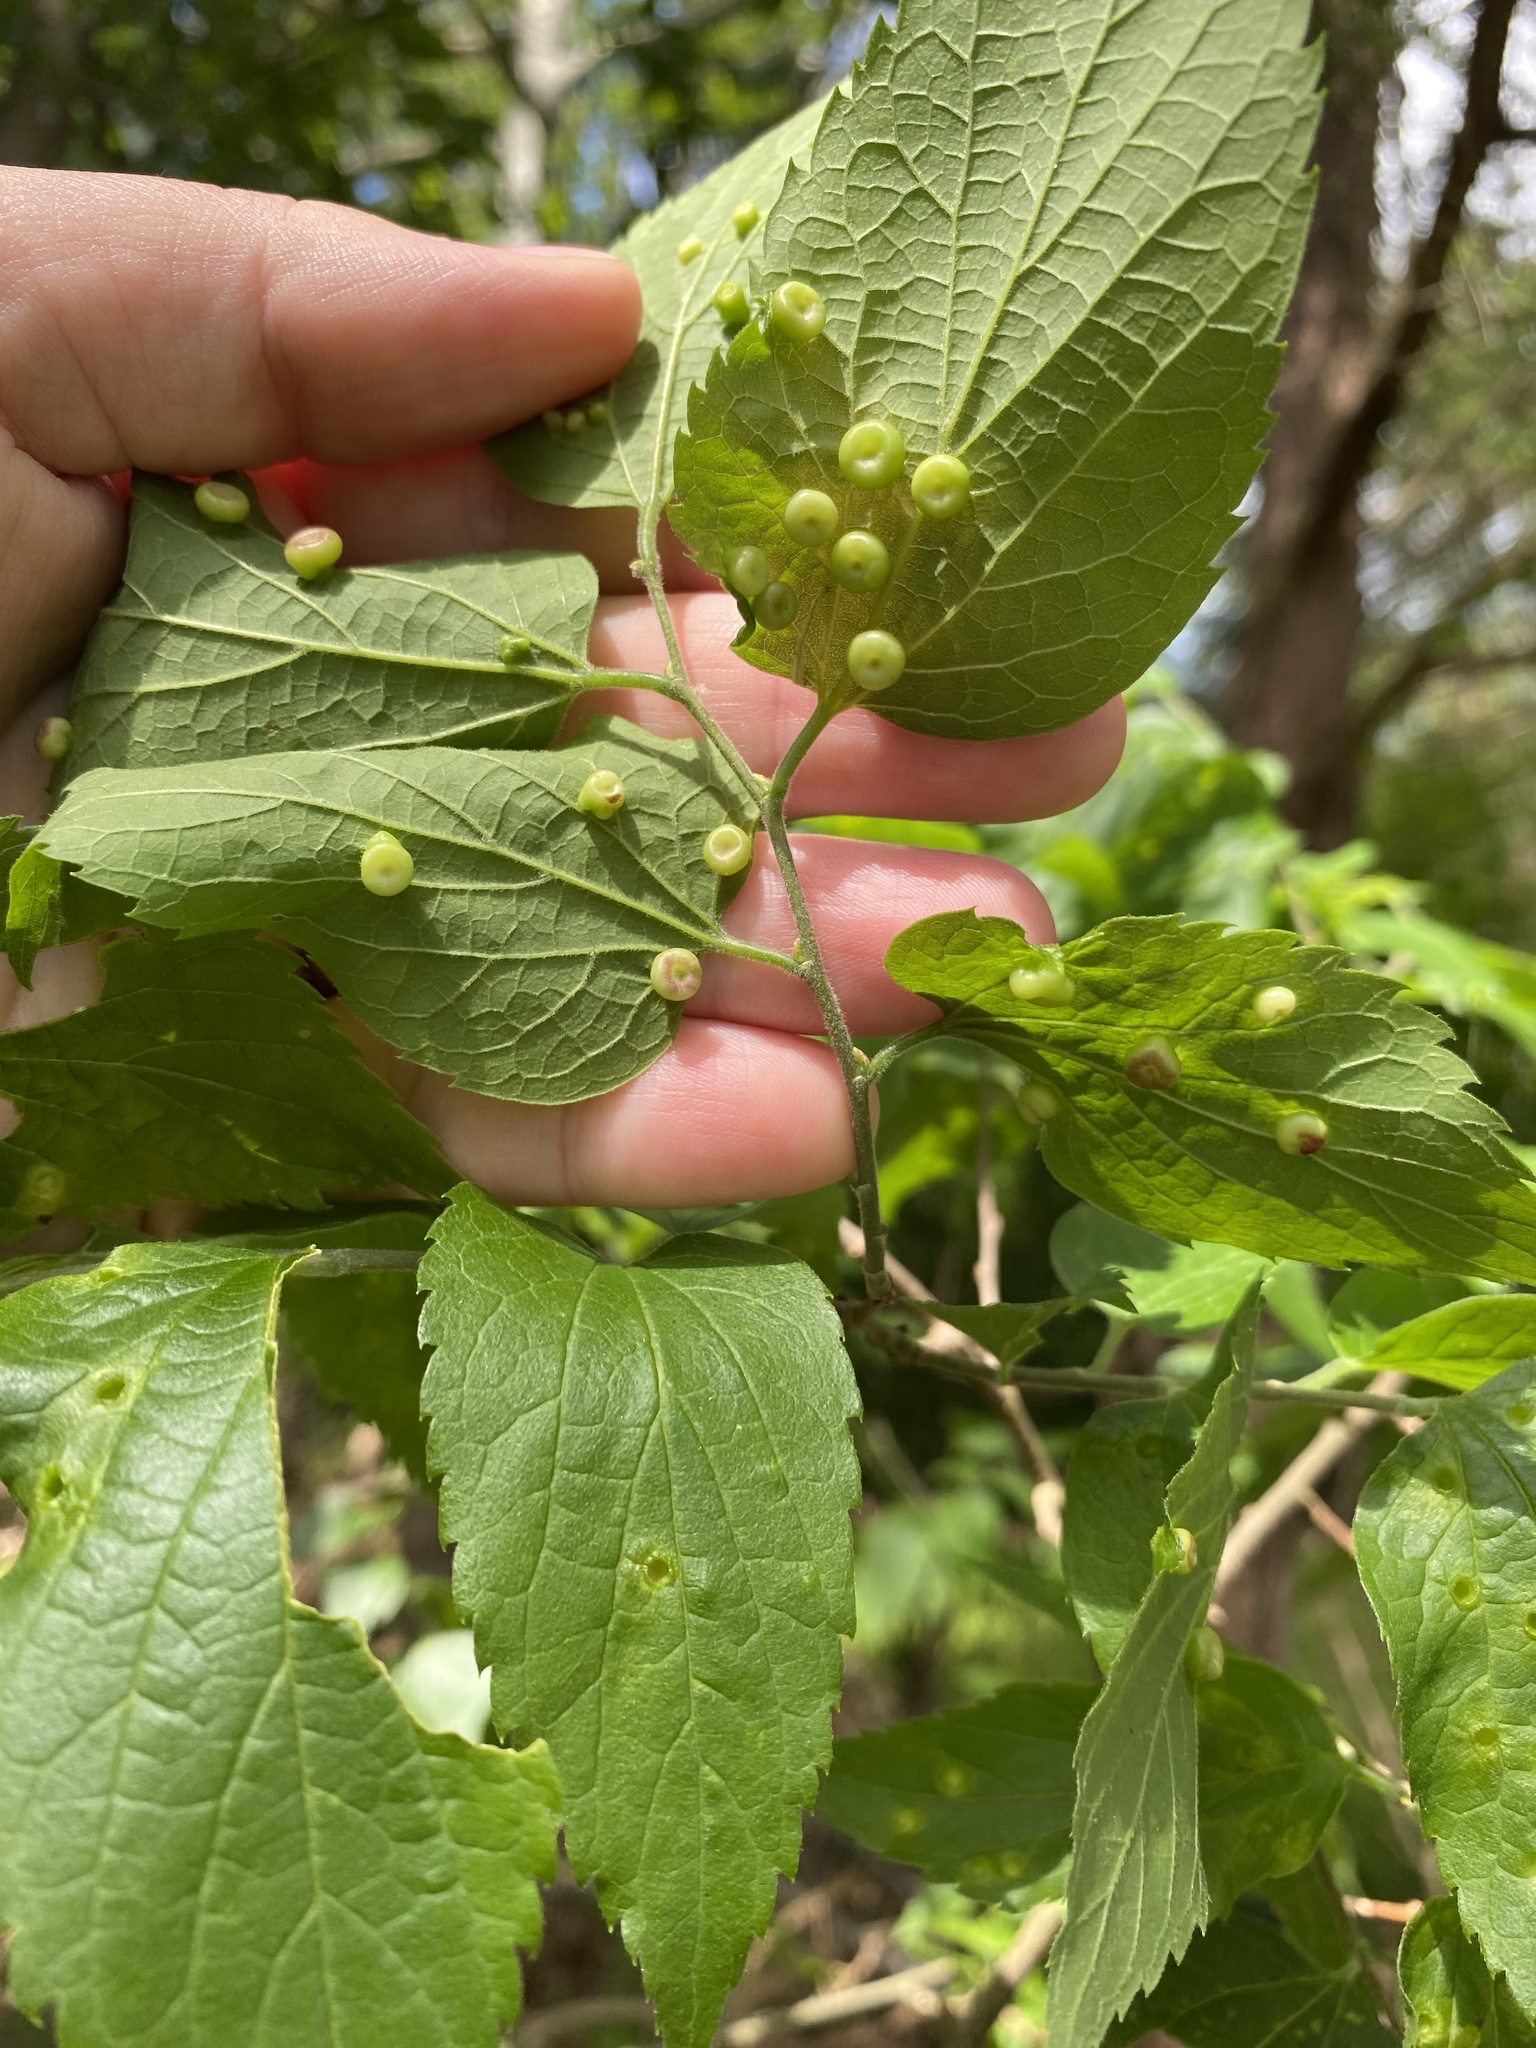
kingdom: Animalia
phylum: Arthropoda
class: Insecta
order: Hemiptera
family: Aphalaridae
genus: Pachypsylla
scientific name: Pachypsylla celtidismamma
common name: Hackberry nipplegall psyllid
